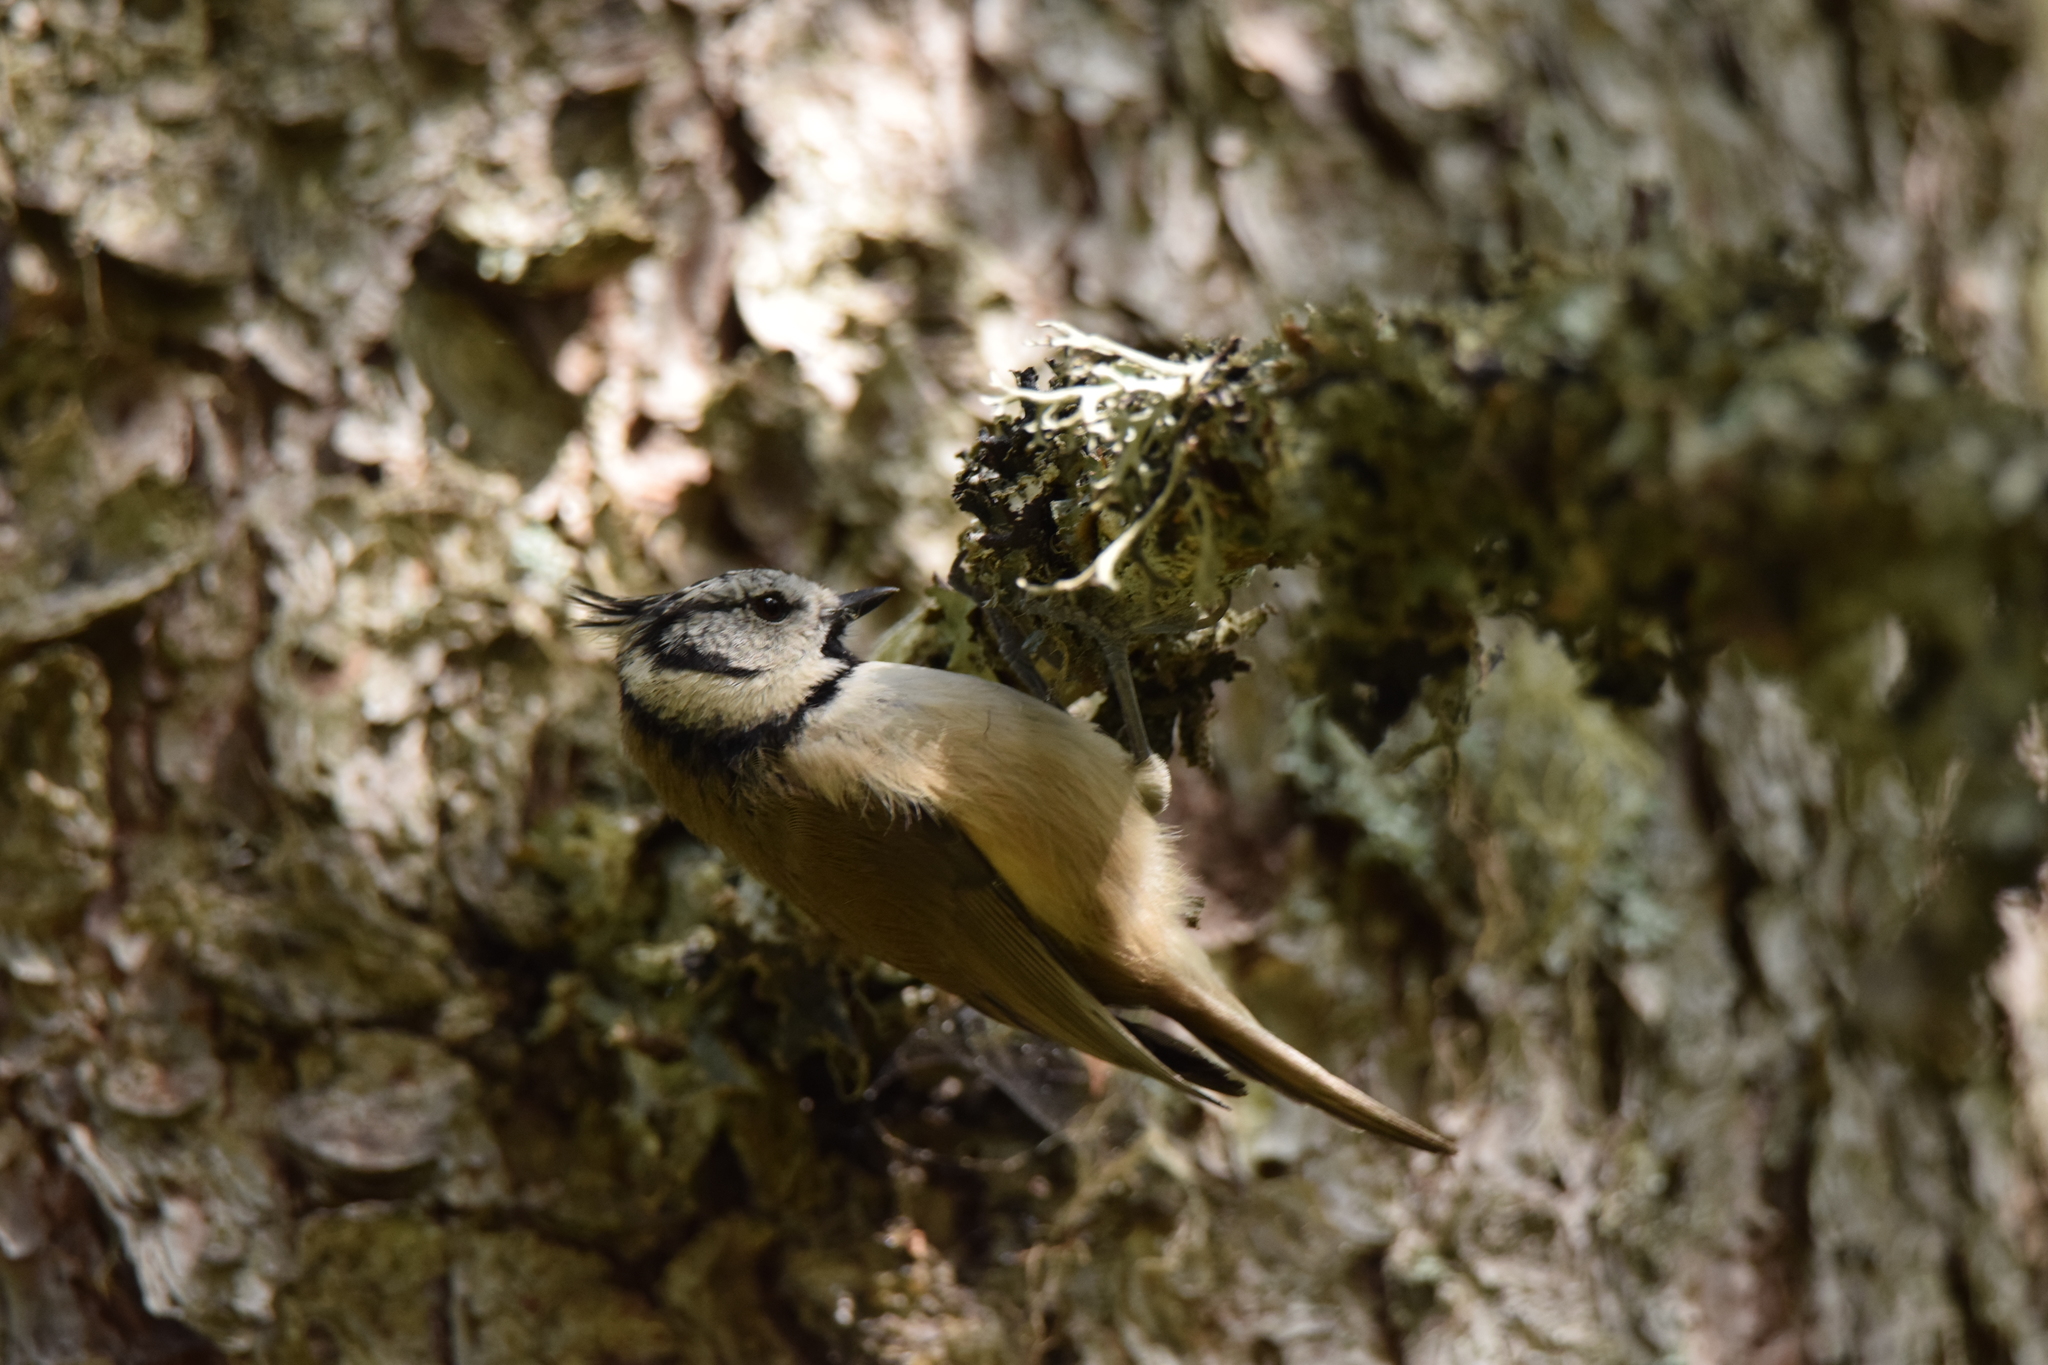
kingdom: Animalia
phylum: Chordata
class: Aves
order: Passeriformes
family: Paridae
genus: Lophophanes
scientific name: Lophophanes cristatus
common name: European crested tit
